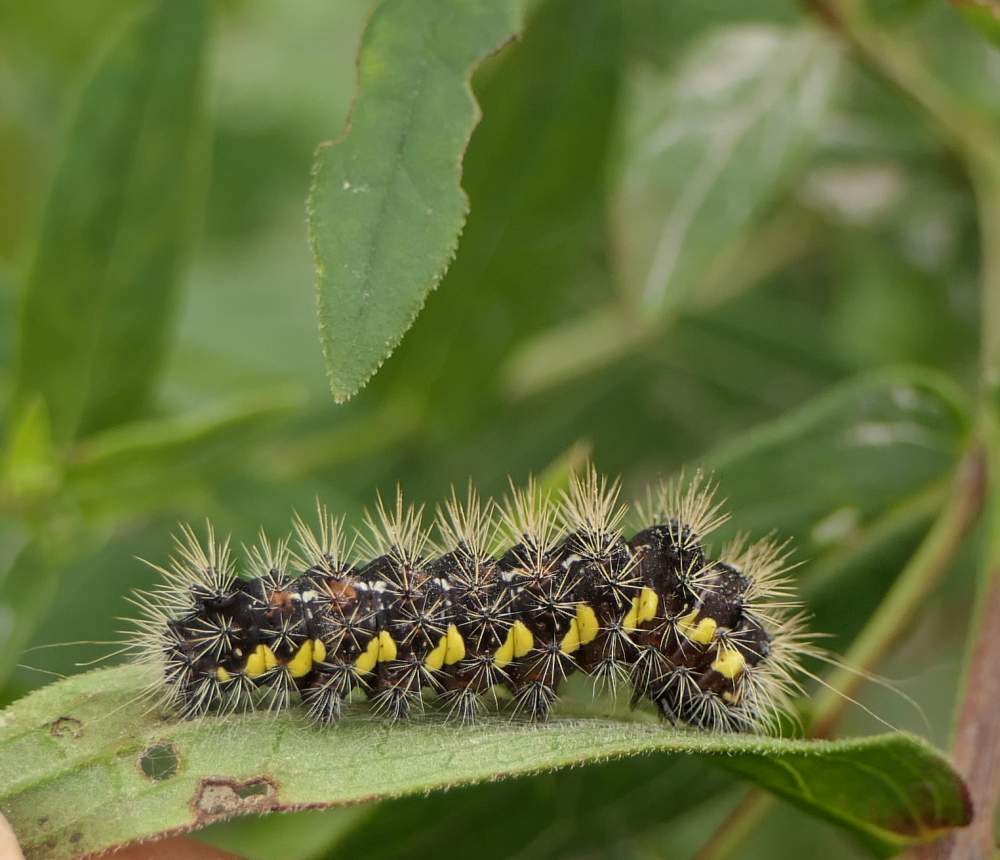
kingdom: Animalia
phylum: Arthropoda
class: Insecta
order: Lepidoptera
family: Noctuidae
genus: Acronicta
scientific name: Acronicta oblinita
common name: Smeared dagger
